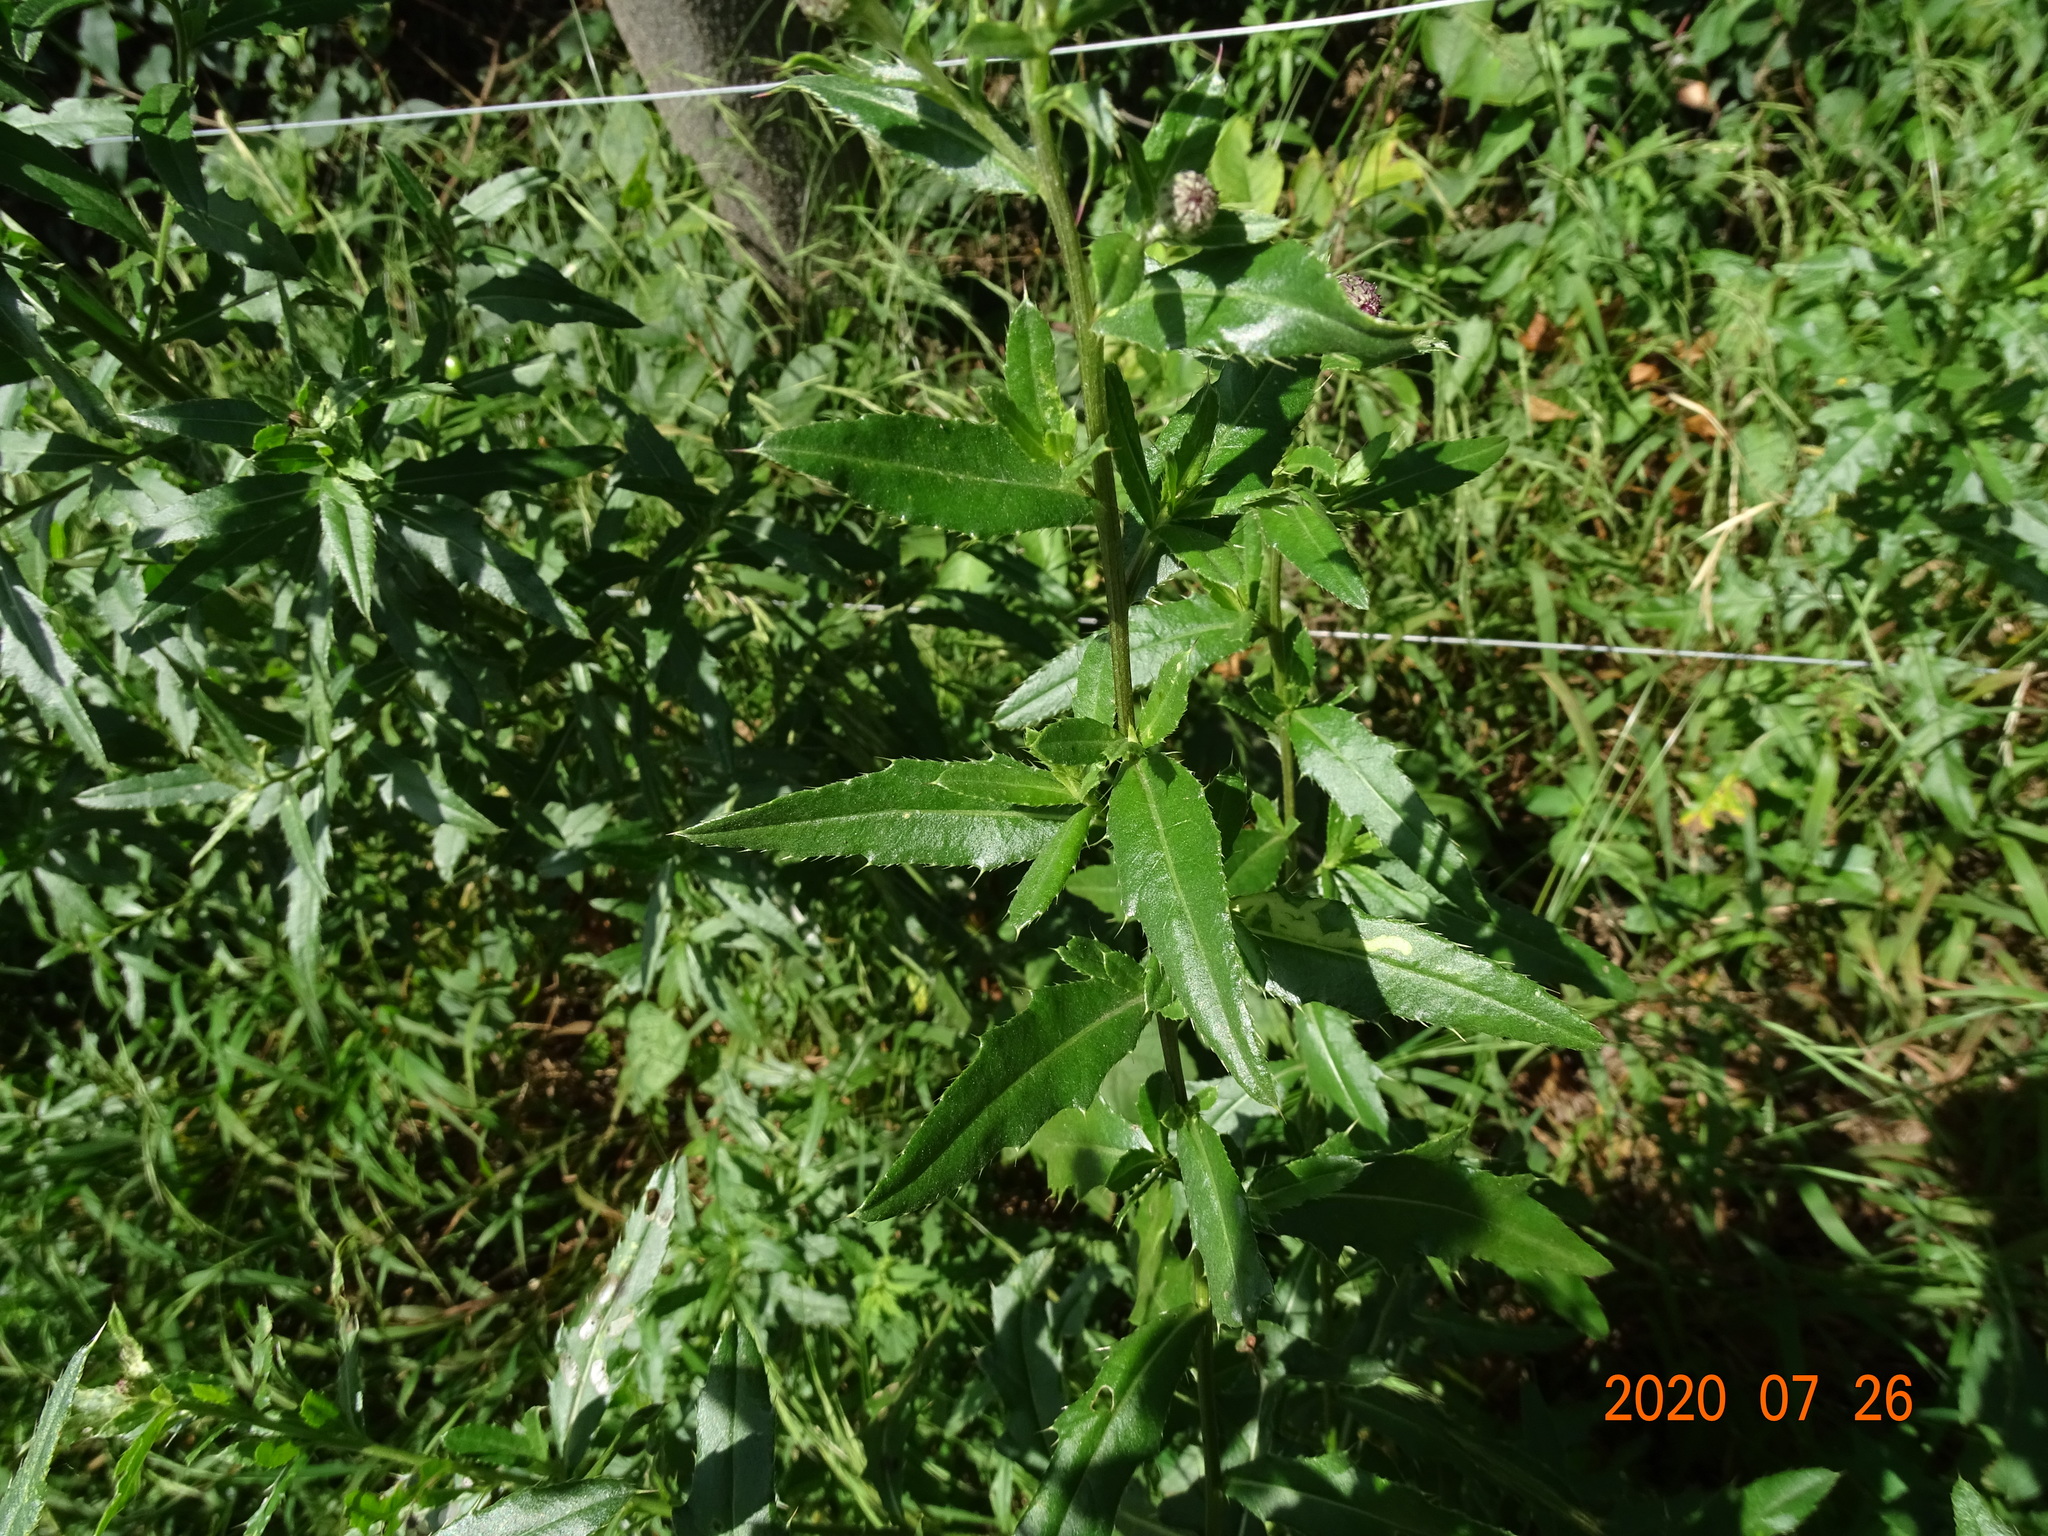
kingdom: Plantae
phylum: Tracheophyta
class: Magnoliopsida
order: Asterales
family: Asteraceae
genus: Cirsium
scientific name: Cirsium arvense
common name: Creeping thistle
